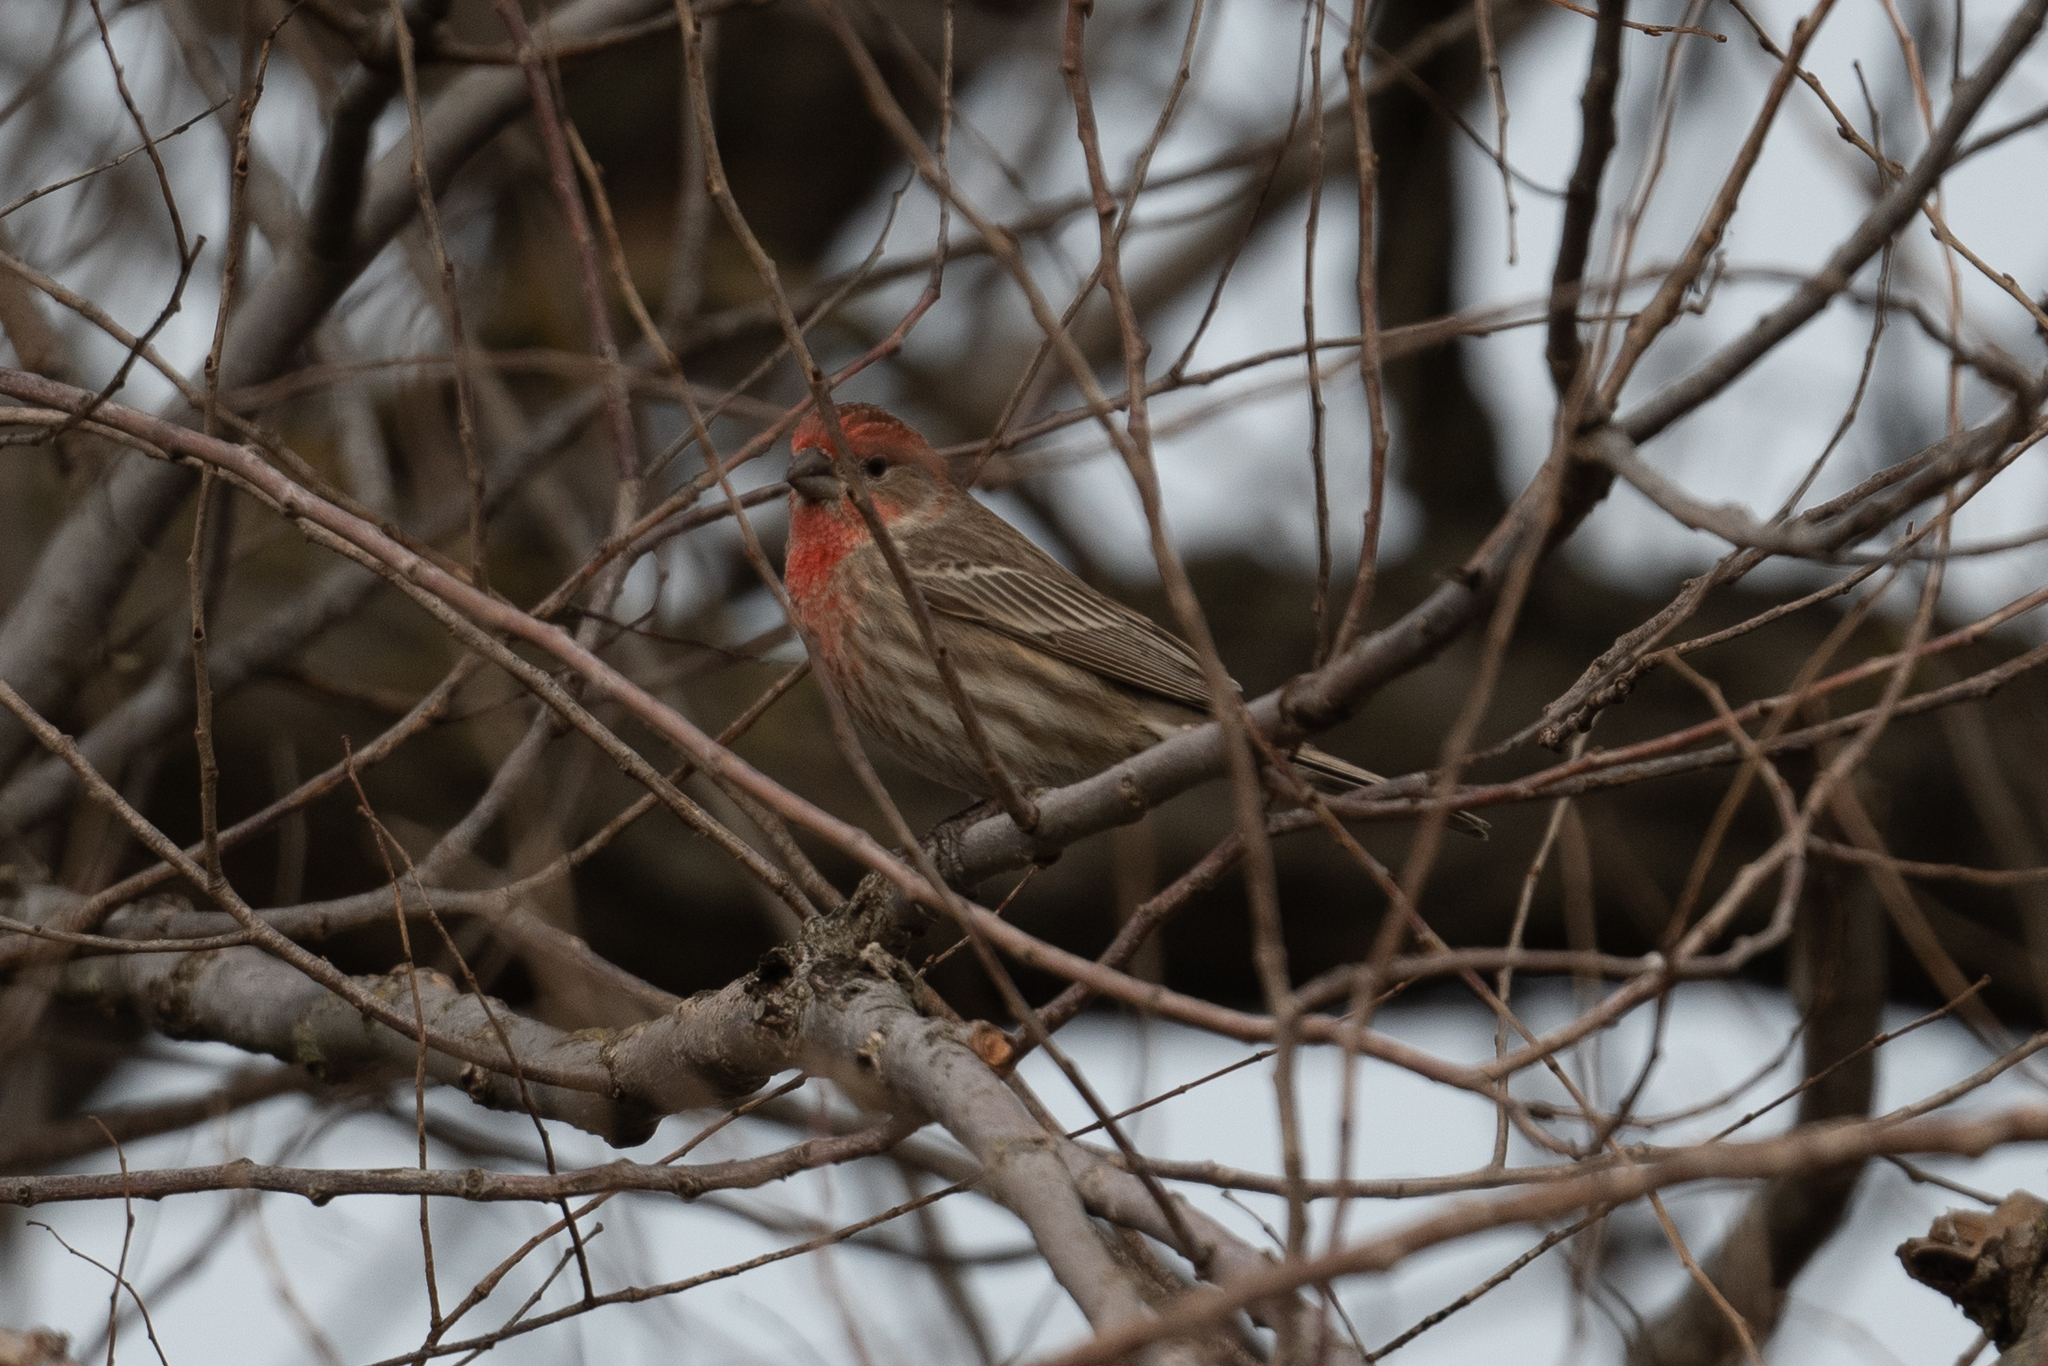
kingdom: Animalia
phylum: Chordata
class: Aves
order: Passeriformes
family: Fringillidae
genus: Haemorhous
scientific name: Haemorhous mexicanus
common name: House finch
